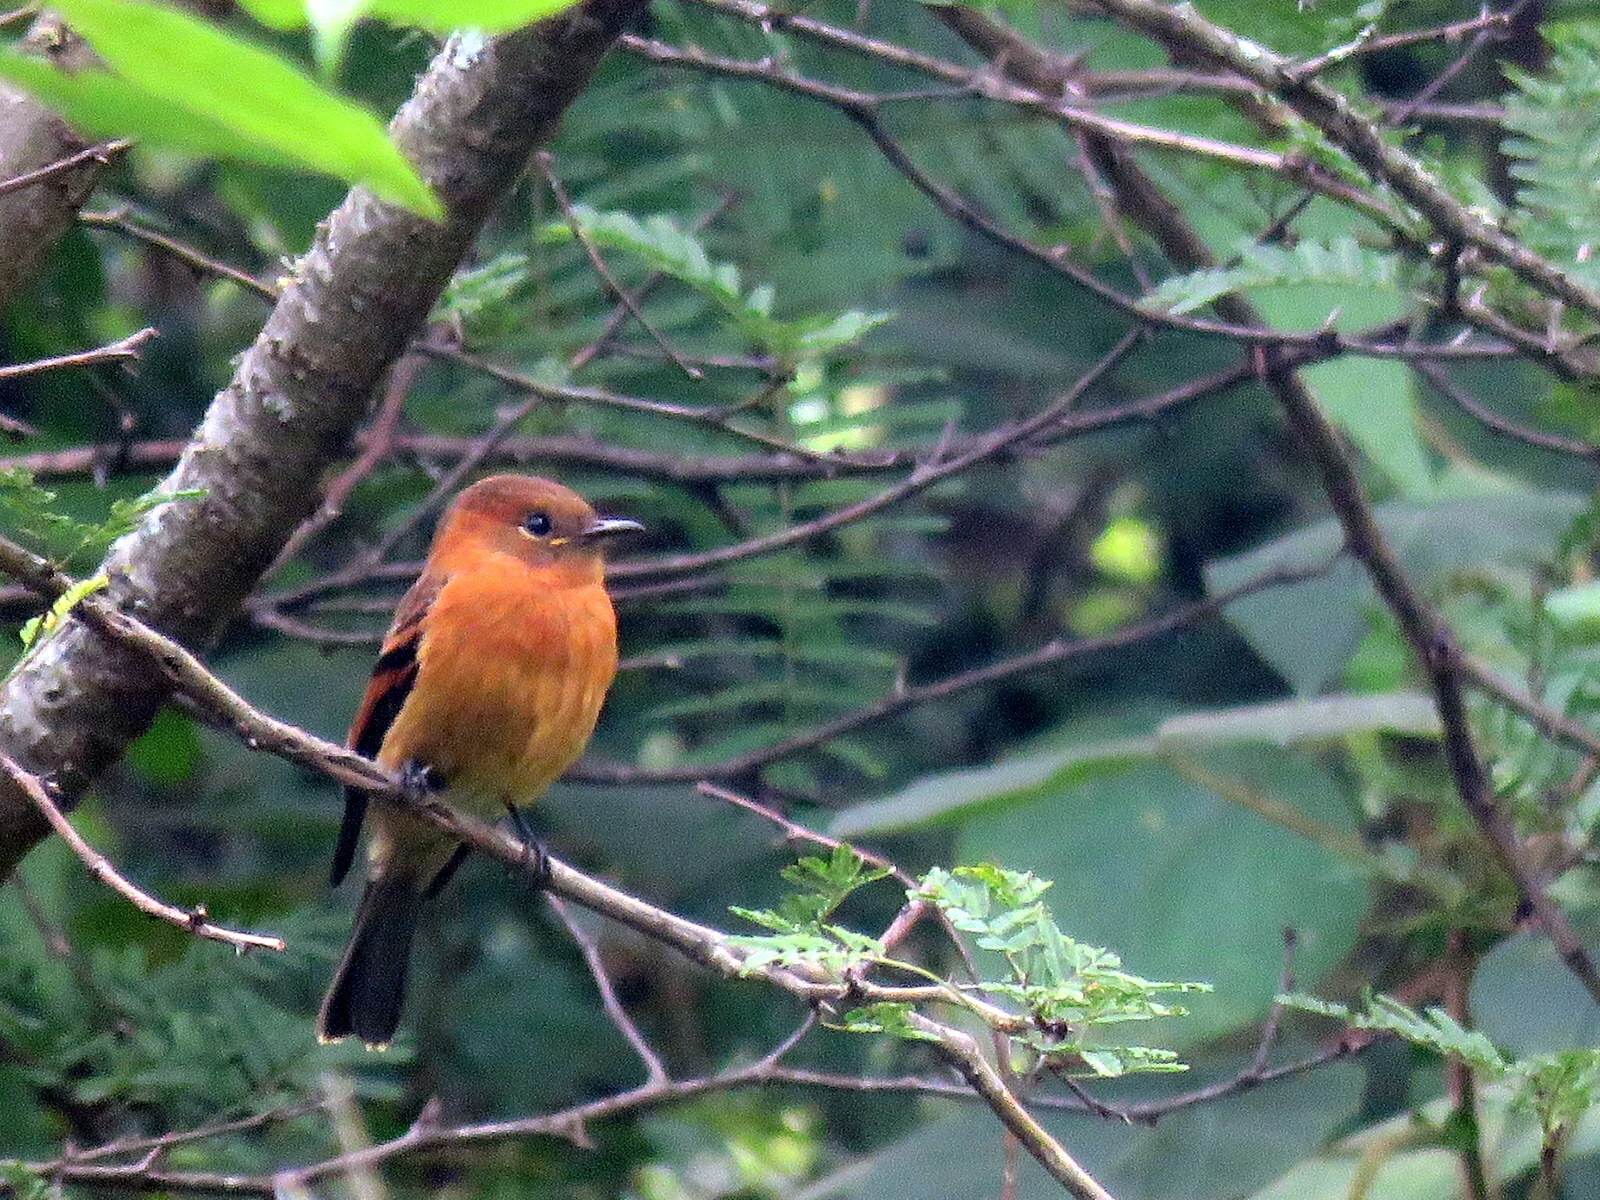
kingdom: Animalia
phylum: Chordata
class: Aves
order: Passeriformes
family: Tyrannidae
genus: Pyrrhomyias
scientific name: Pyrrhomyias cinnamomeus
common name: Cinnamon flycatcher
